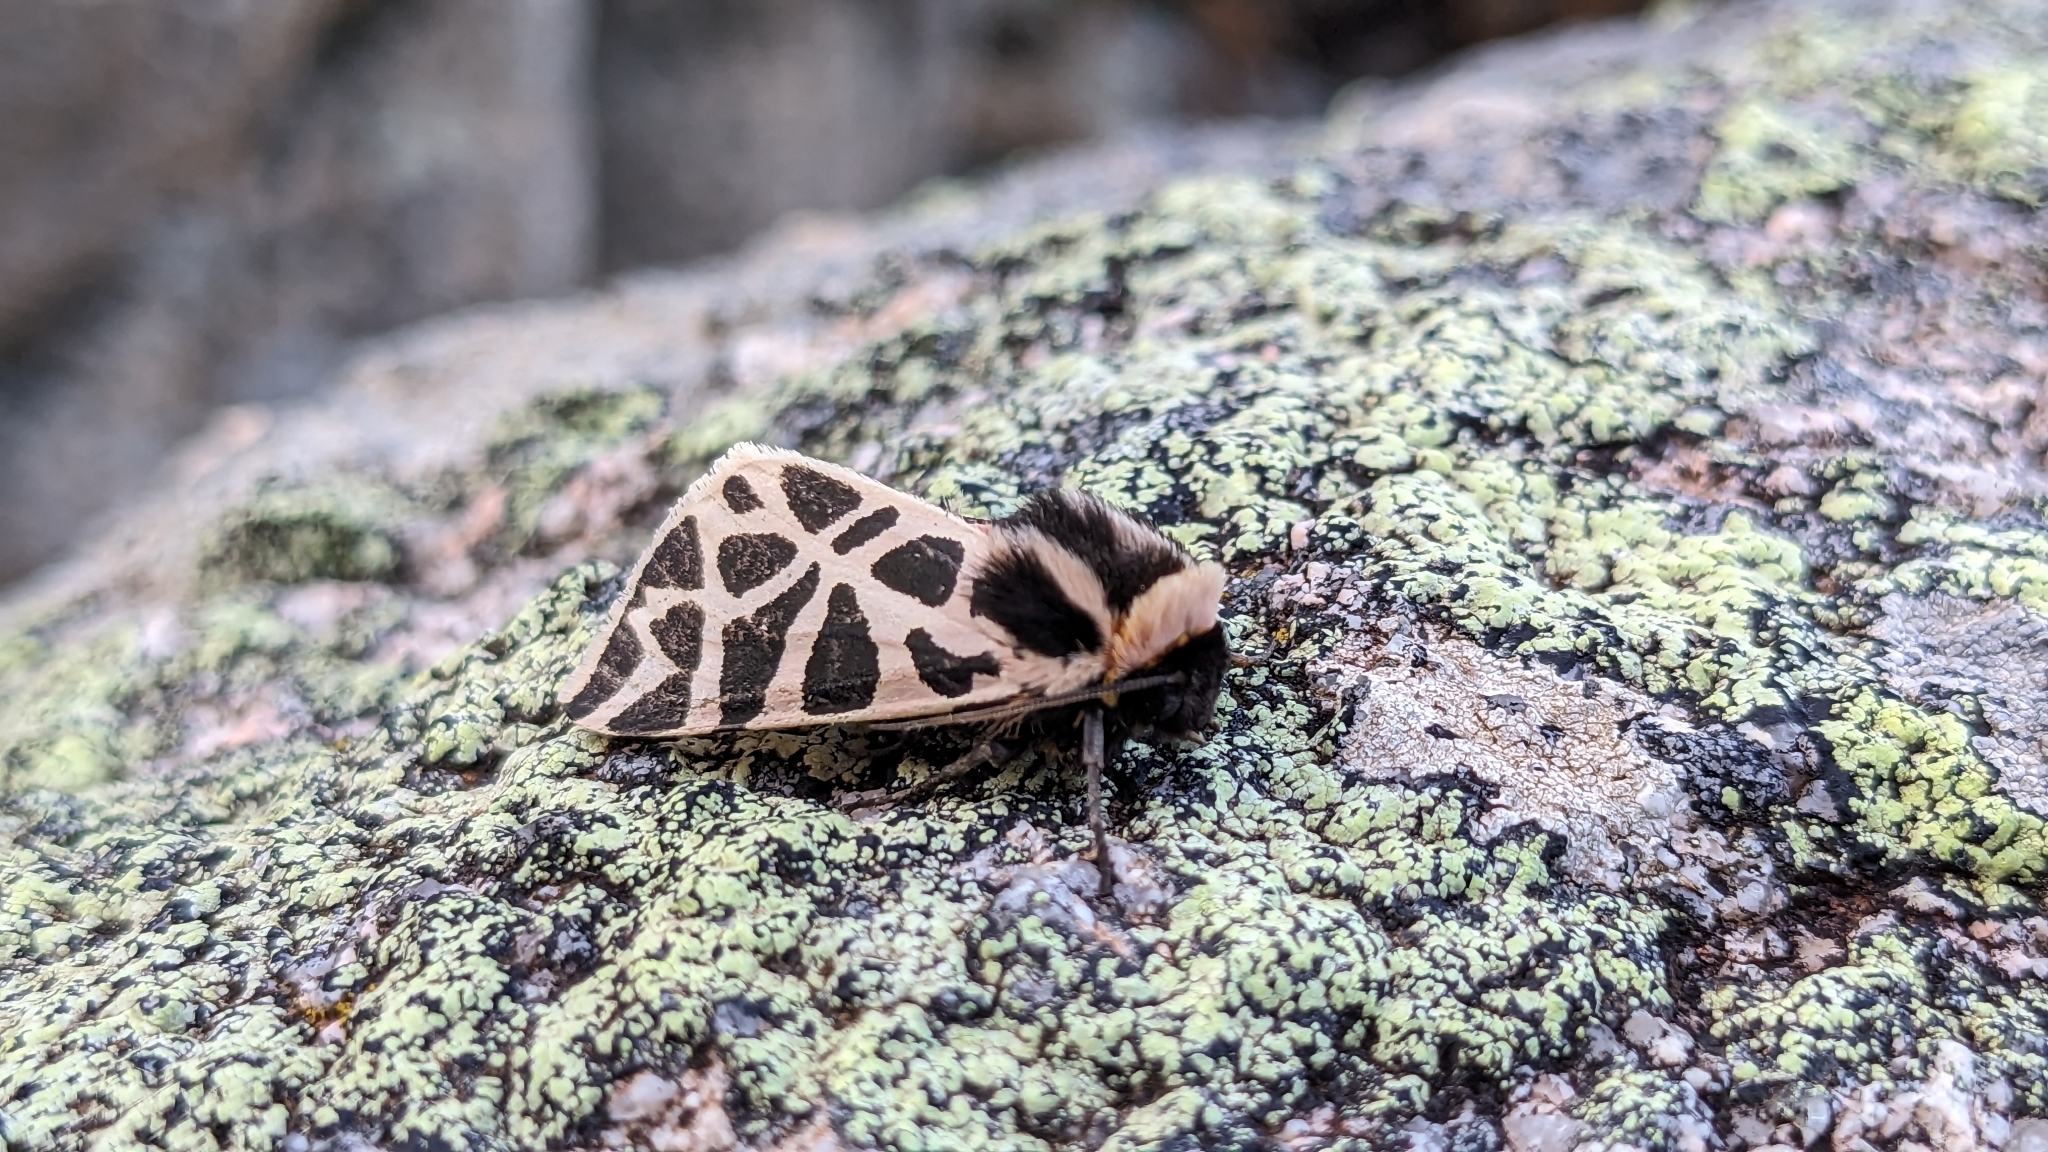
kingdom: Animalia
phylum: Arthropoda
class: Insecta
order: Lepidoptera
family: Erebidae
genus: Cymbalophora
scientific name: Cymbalophora pudica
